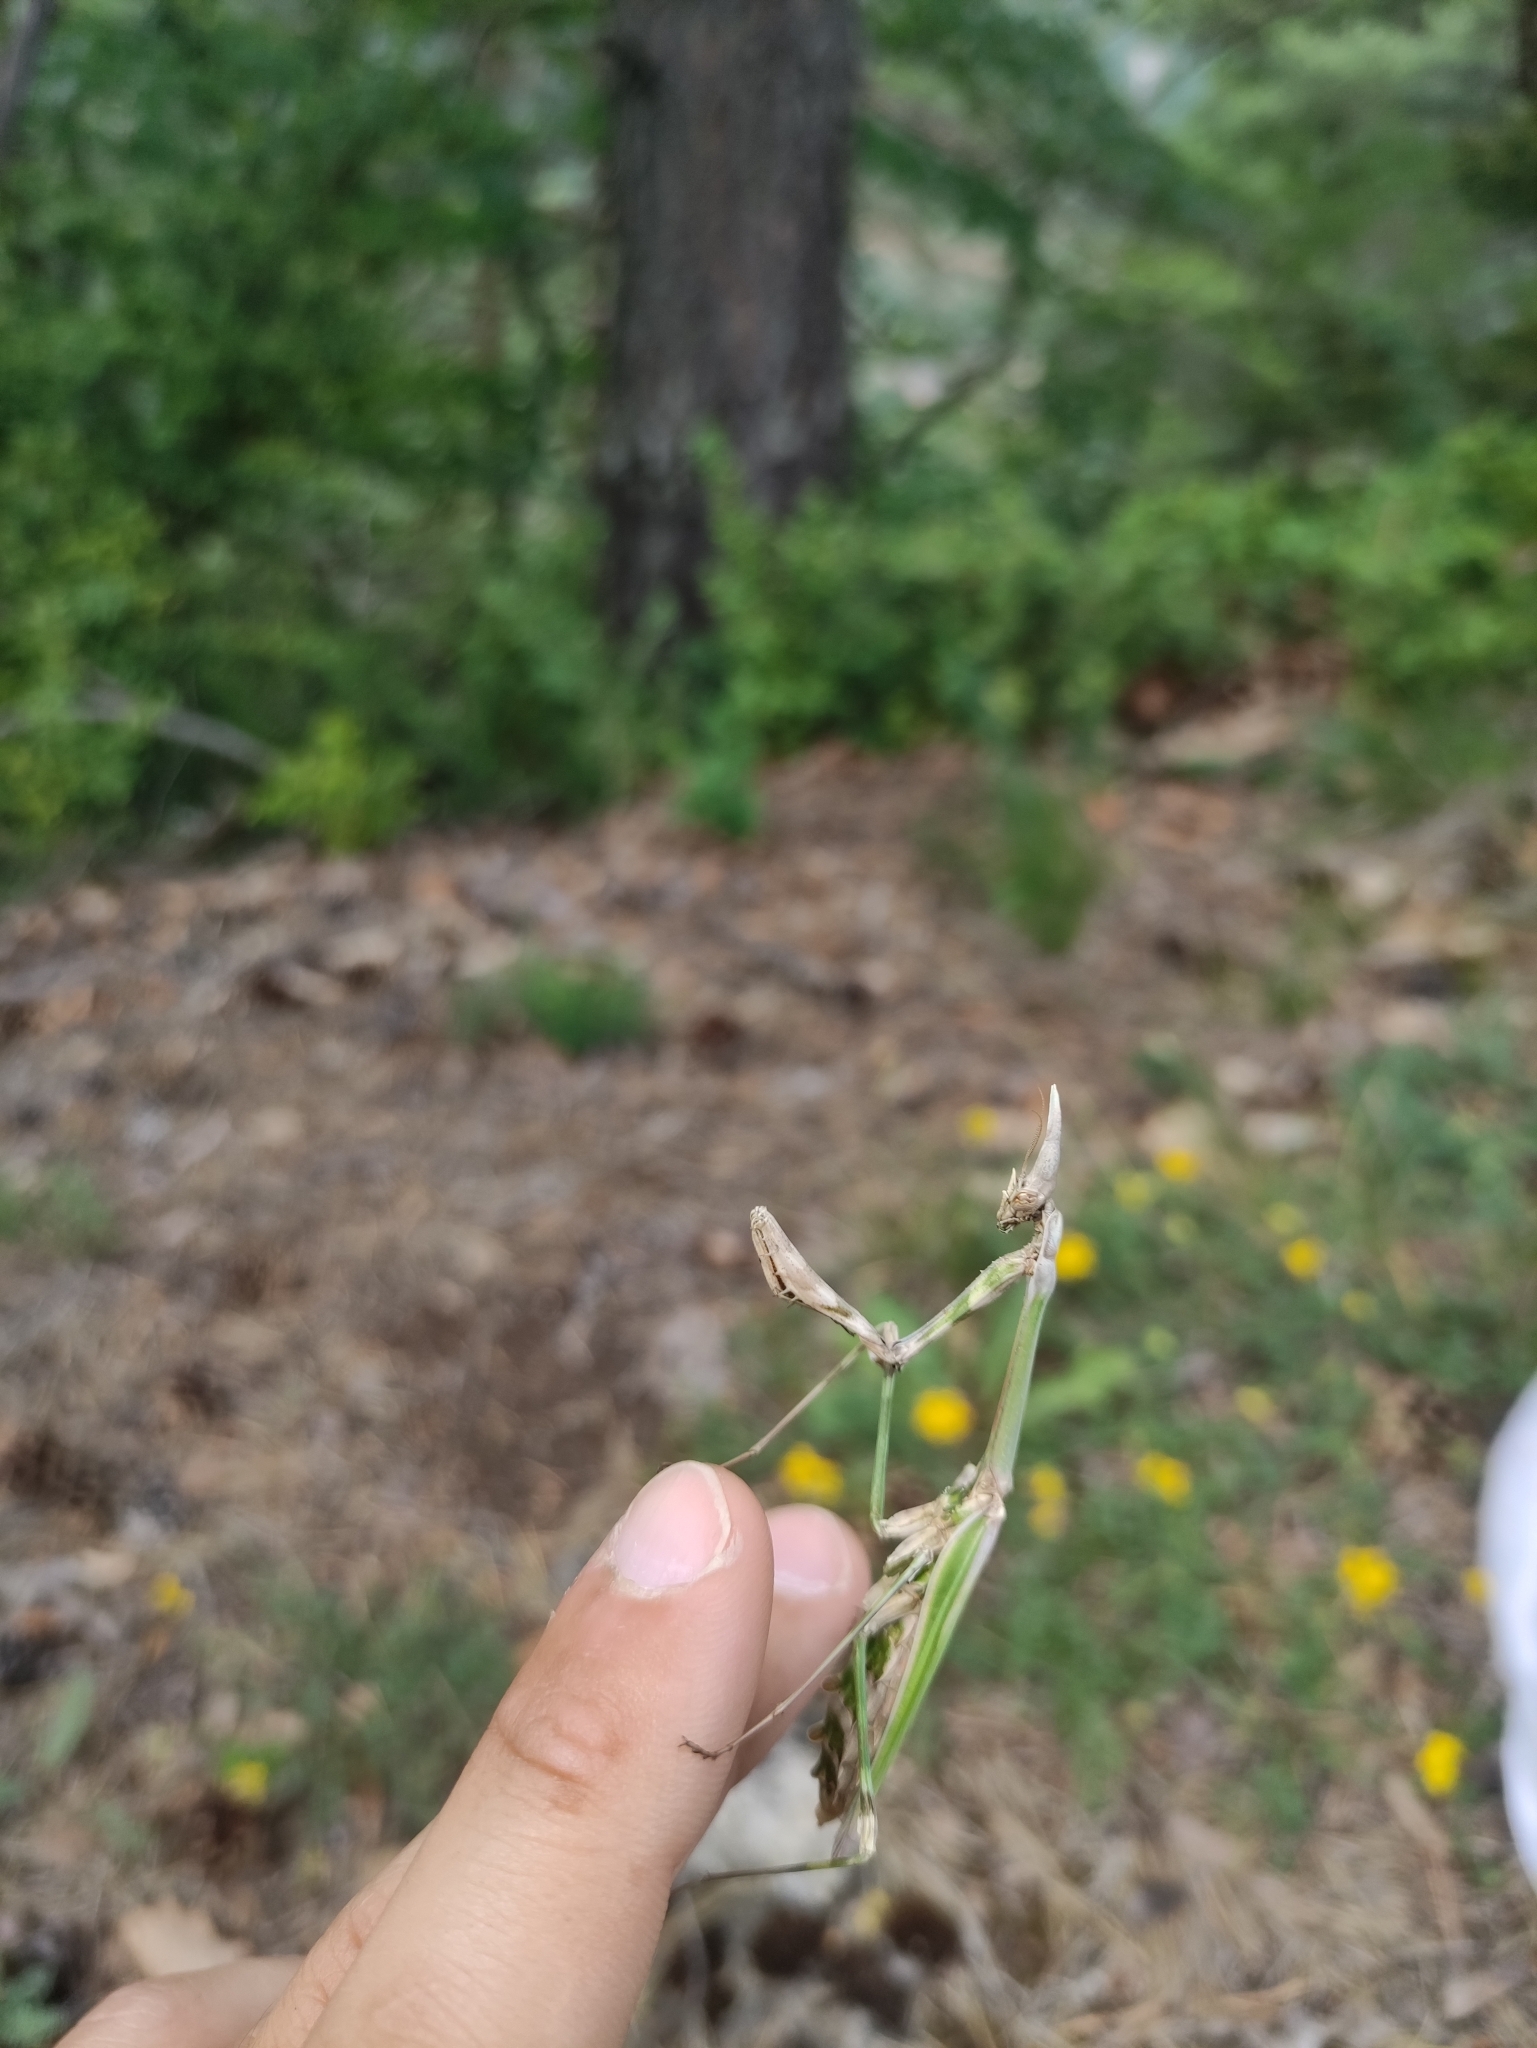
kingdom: Animalia
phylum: Arthropoda
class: Insecta
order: Mantodea
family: Empusidae
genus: Empusa
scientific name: Empusa pennata
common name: Conehead mantis
